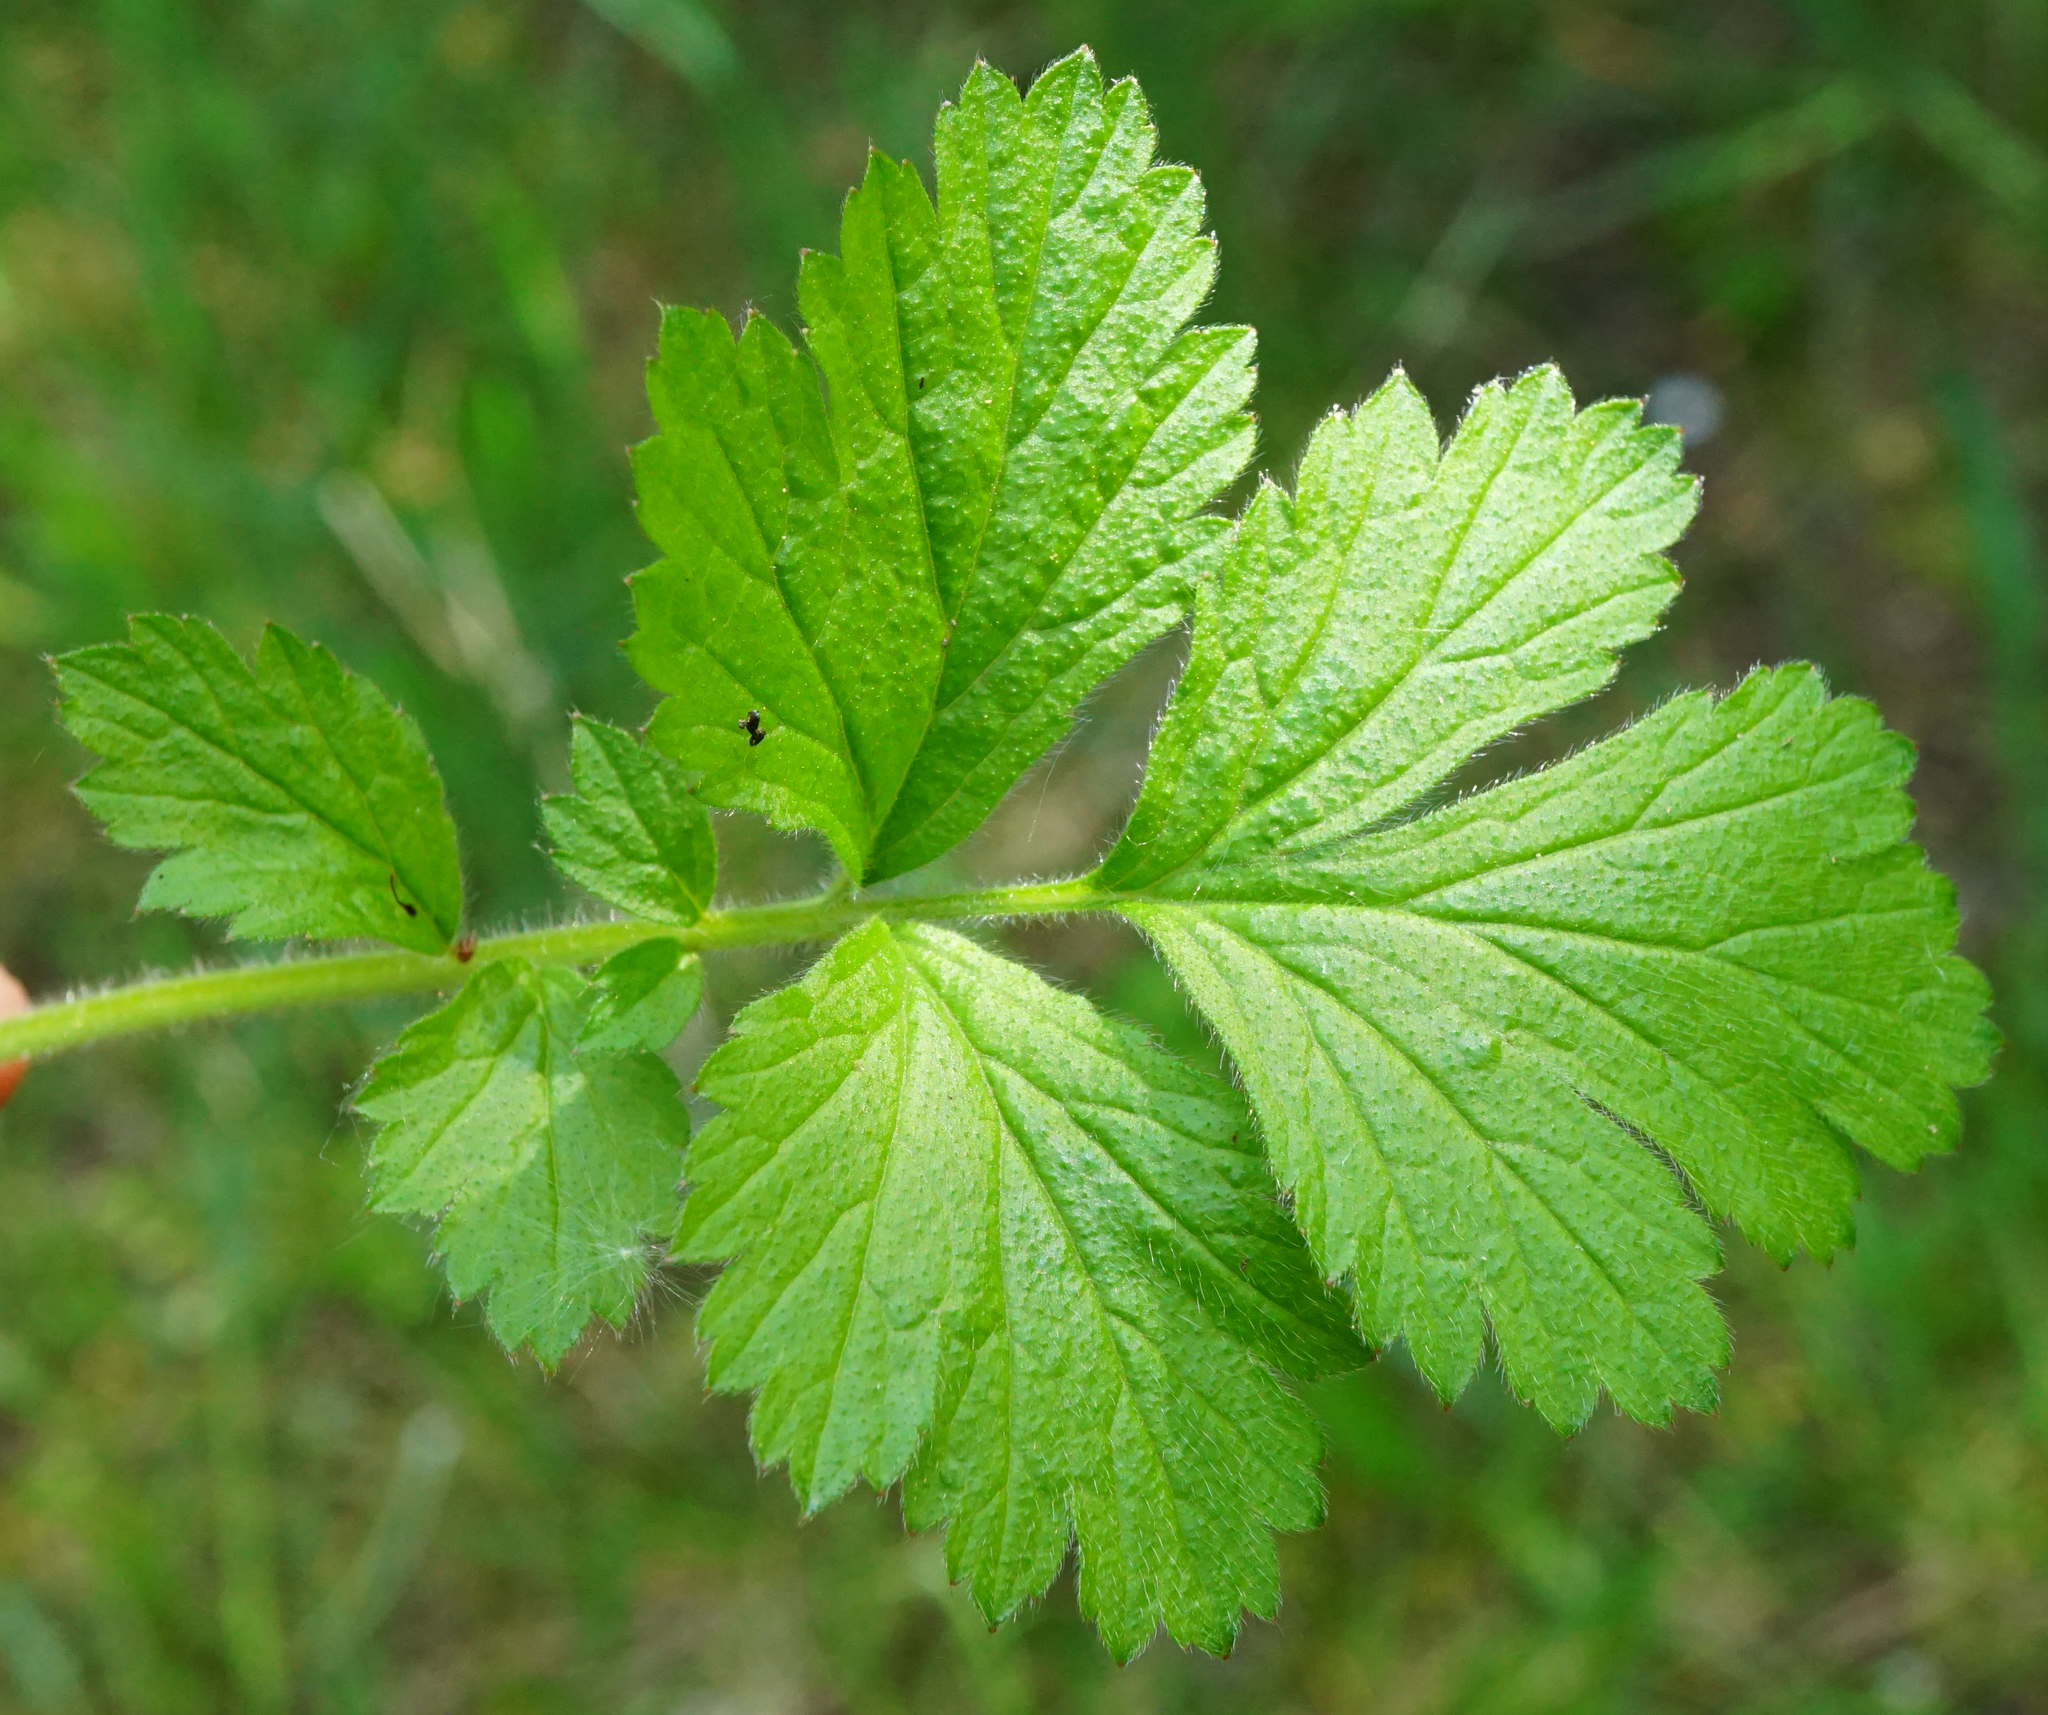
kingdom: Plantae
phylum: Tracheophyta
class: Magnoliopsida
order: Rosales
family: Rosaceae
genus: Geum
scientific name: Geum urbanum
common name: Wood avens
